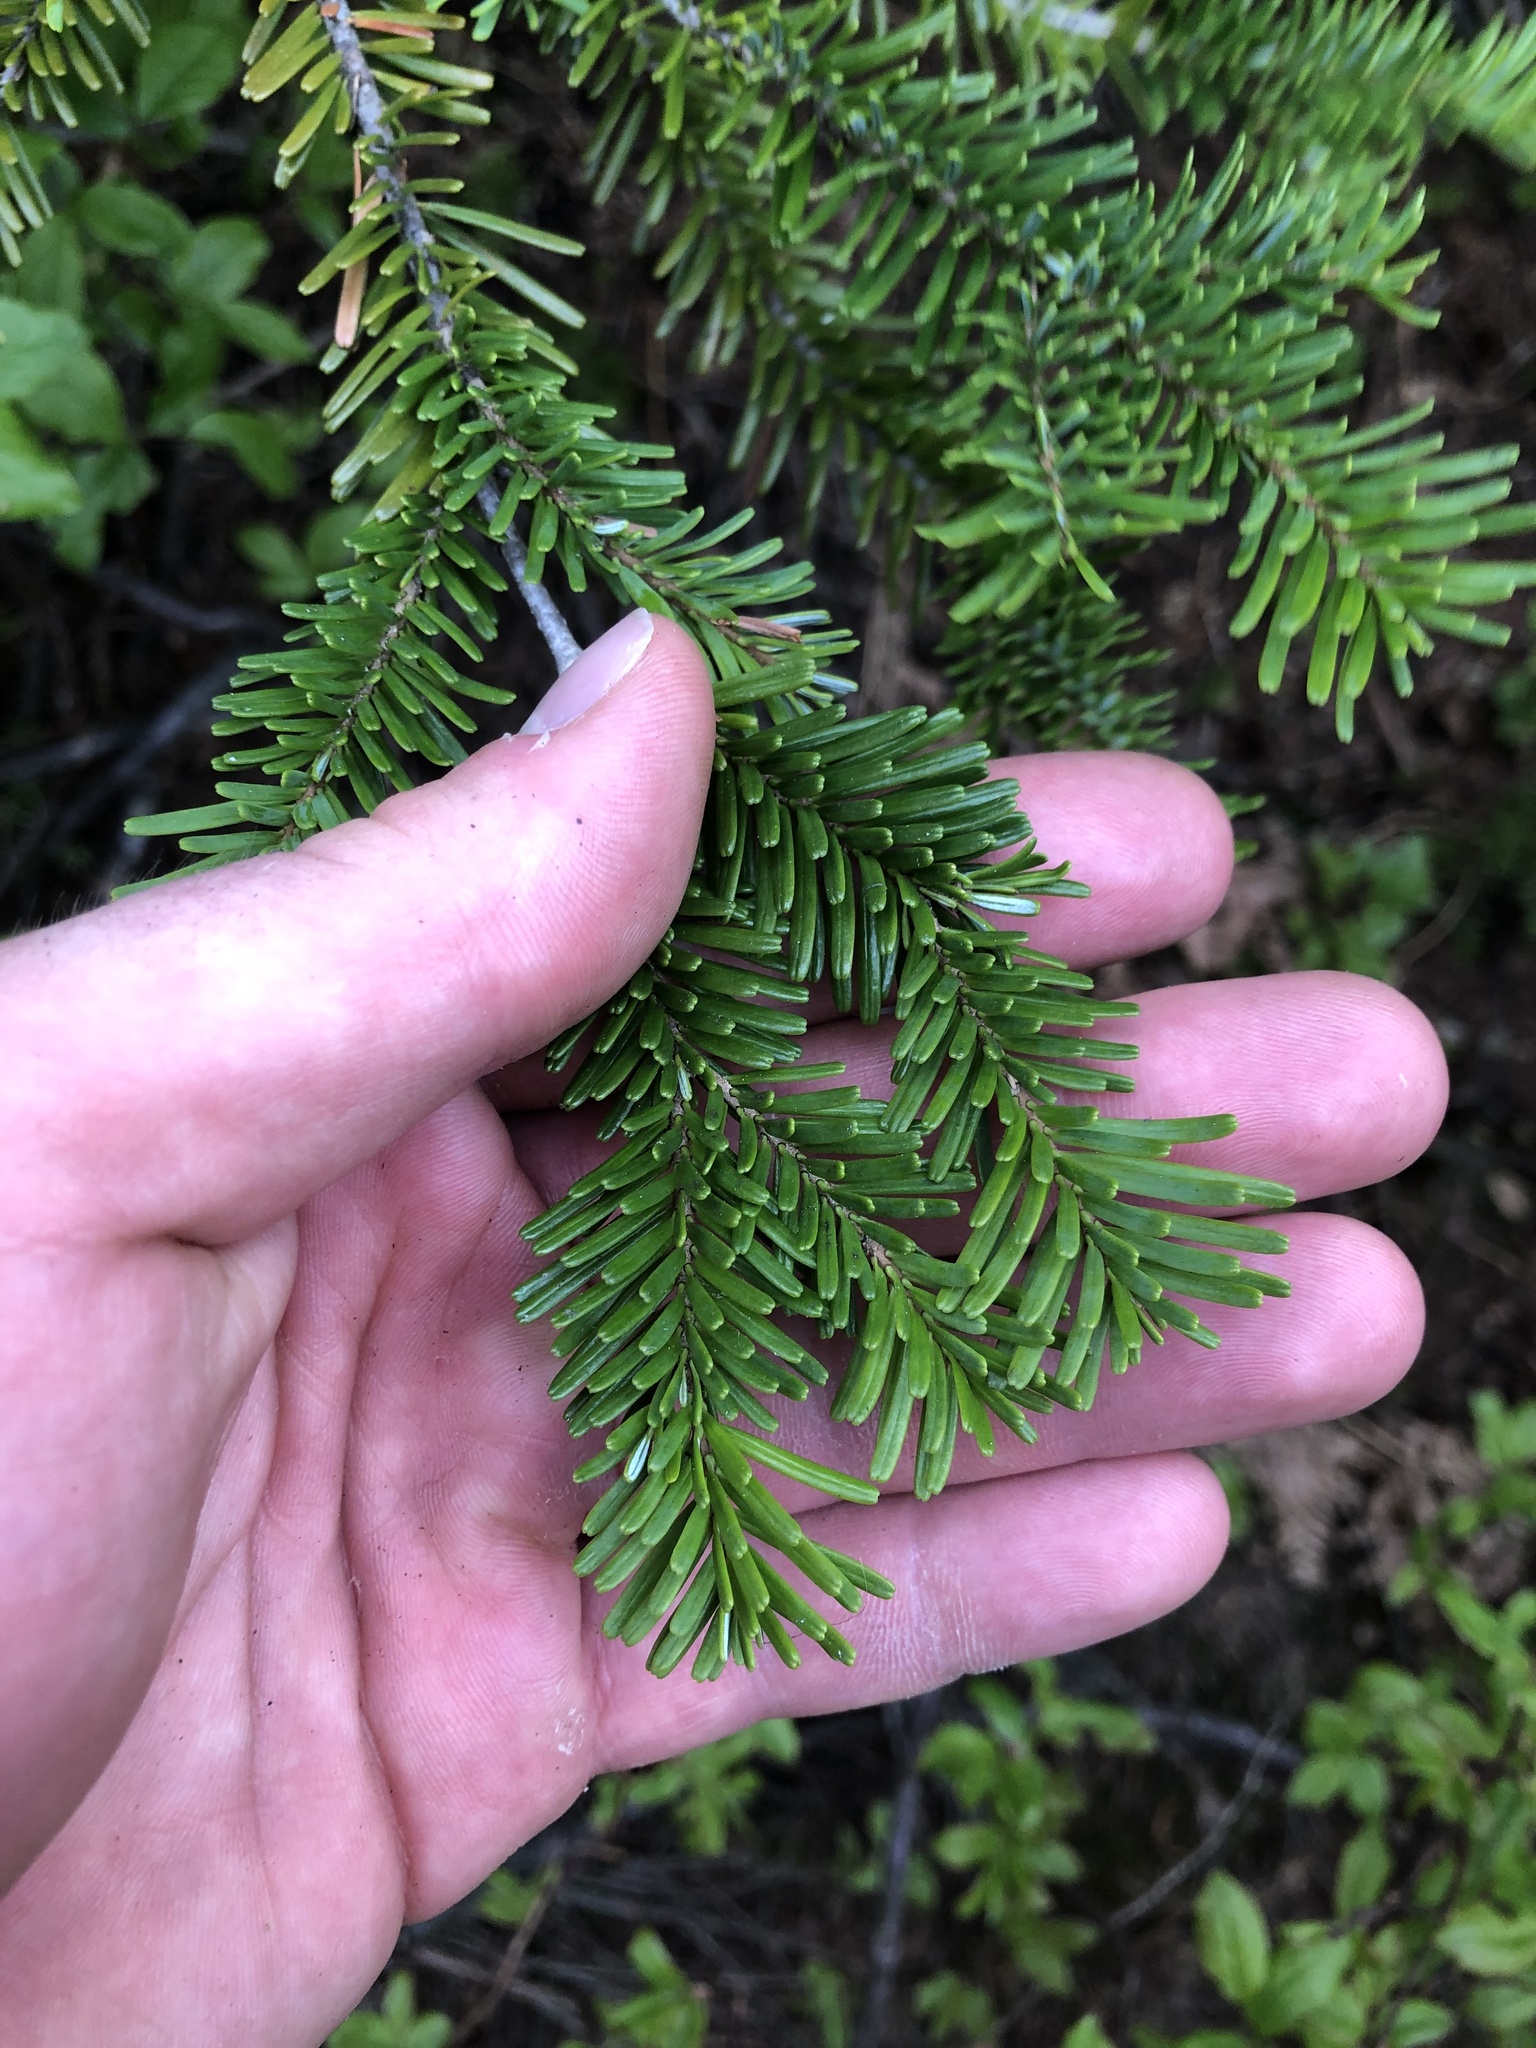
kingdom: Plantae
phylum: Tracheophyta
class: Pinopsida
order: Pinales
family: Pinaceae
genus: Abies
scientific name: Abies amabilis
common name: Pacific silver fir
